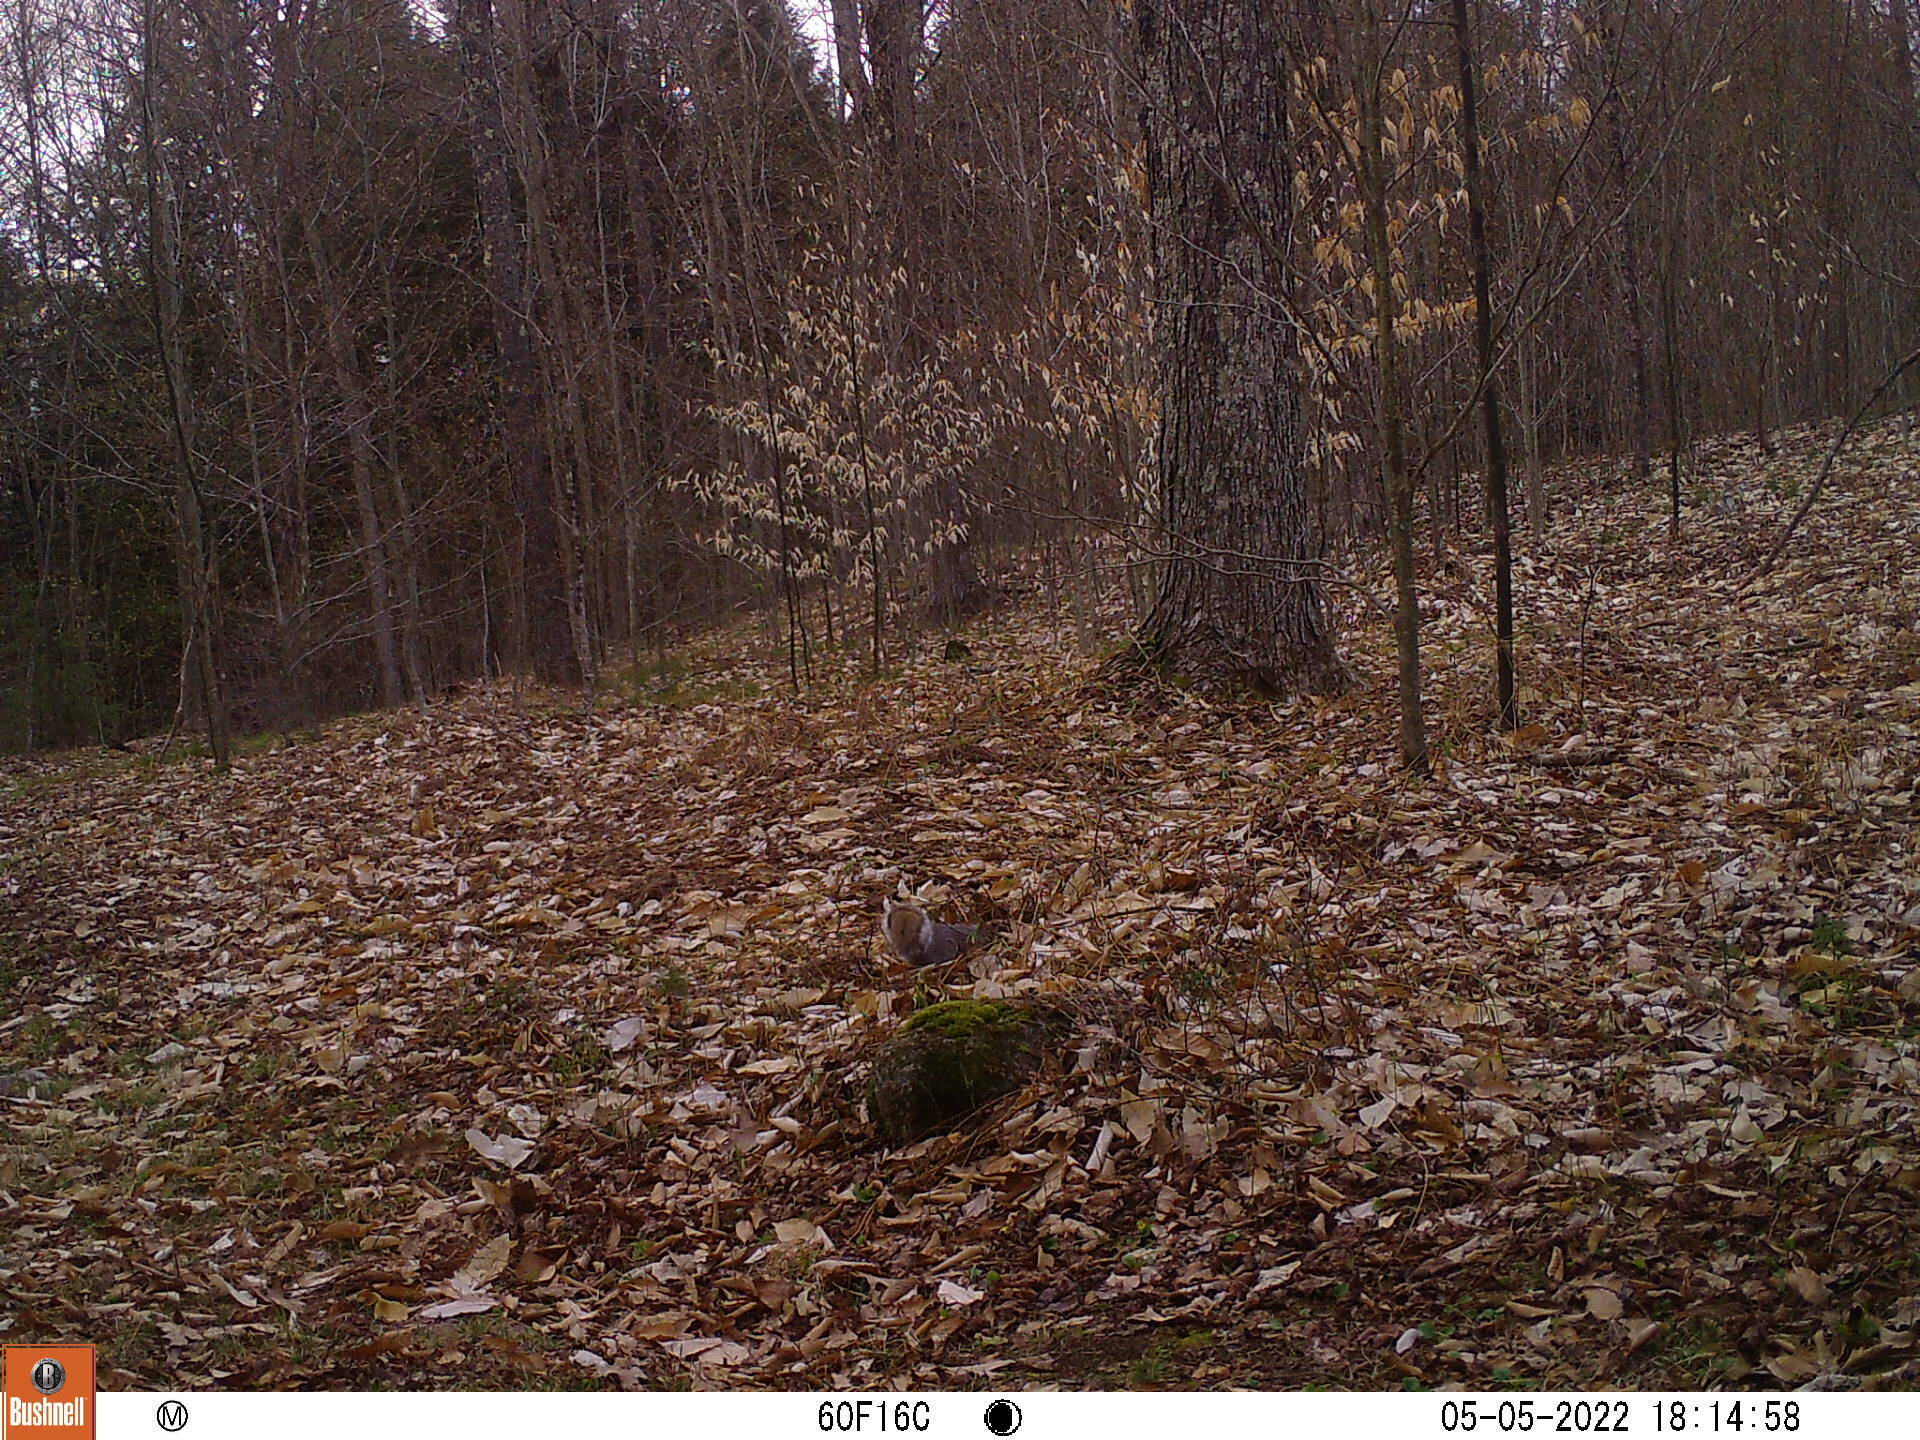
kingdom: Animalia
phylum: Chordata
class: Mammalia
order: Rodentia
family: Sciuridae
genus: Sciurus
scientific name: Sciurus carolinensis
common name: Eastern gray squirrel
